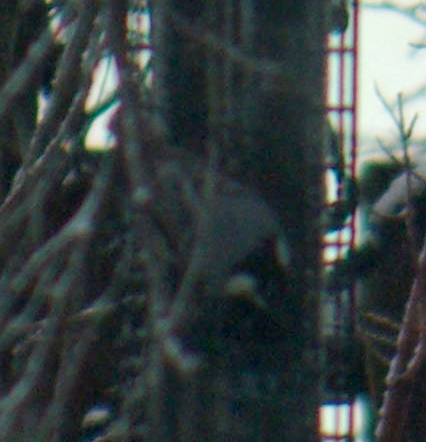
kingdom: Animalia
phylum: Chordata
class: Aves
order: Passeriformes
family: Sittidae
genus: Sitta
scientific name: Sitta carolinensis
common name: White-breasted nuthatch
